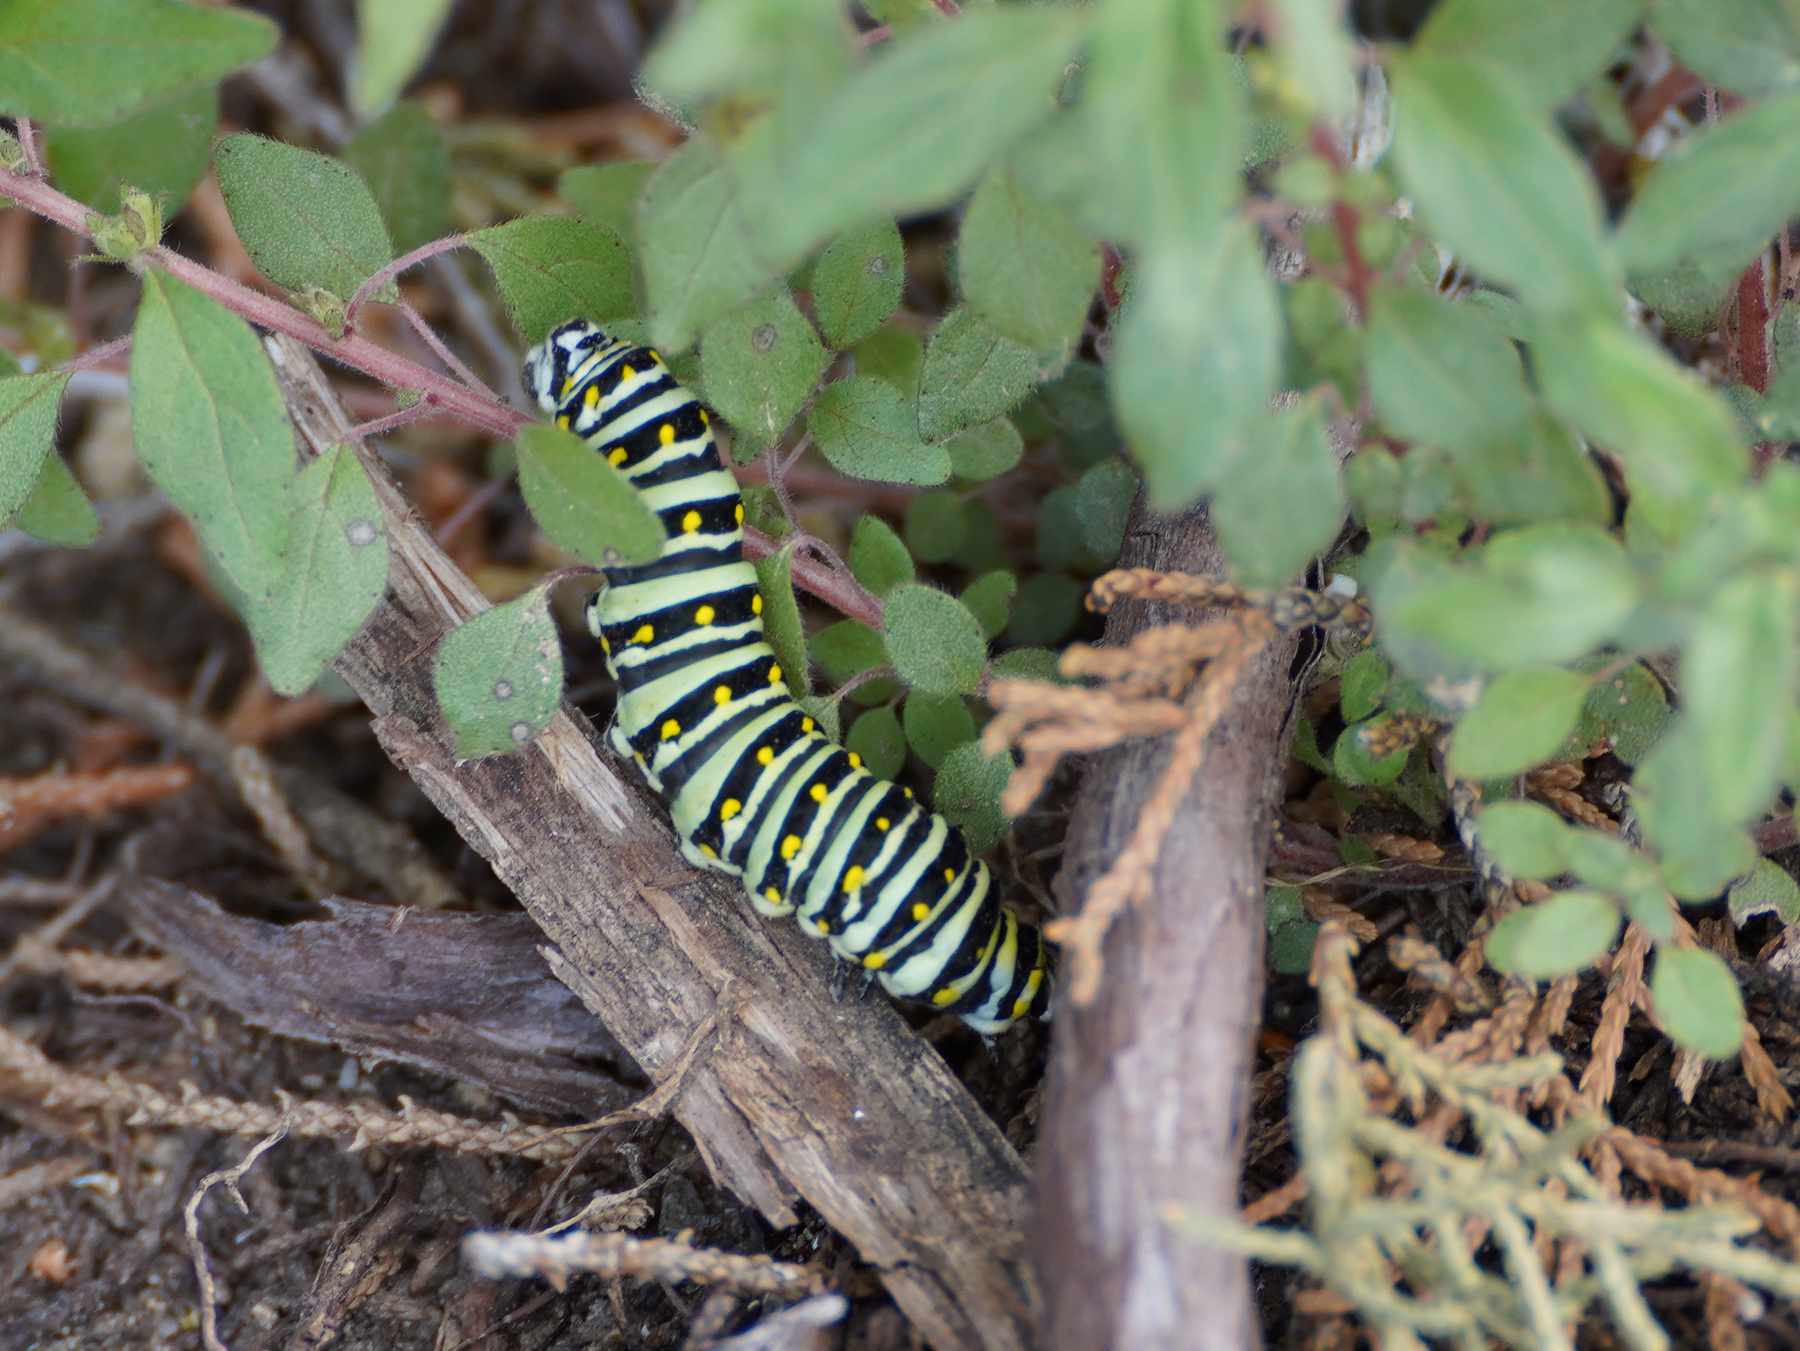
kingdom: Animalia
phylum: Arthropoda
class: Insecta
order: Lepidoptera
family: Papilionidae
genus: Papilio
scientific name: Papilio polyxenes
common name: Black swallowtail
